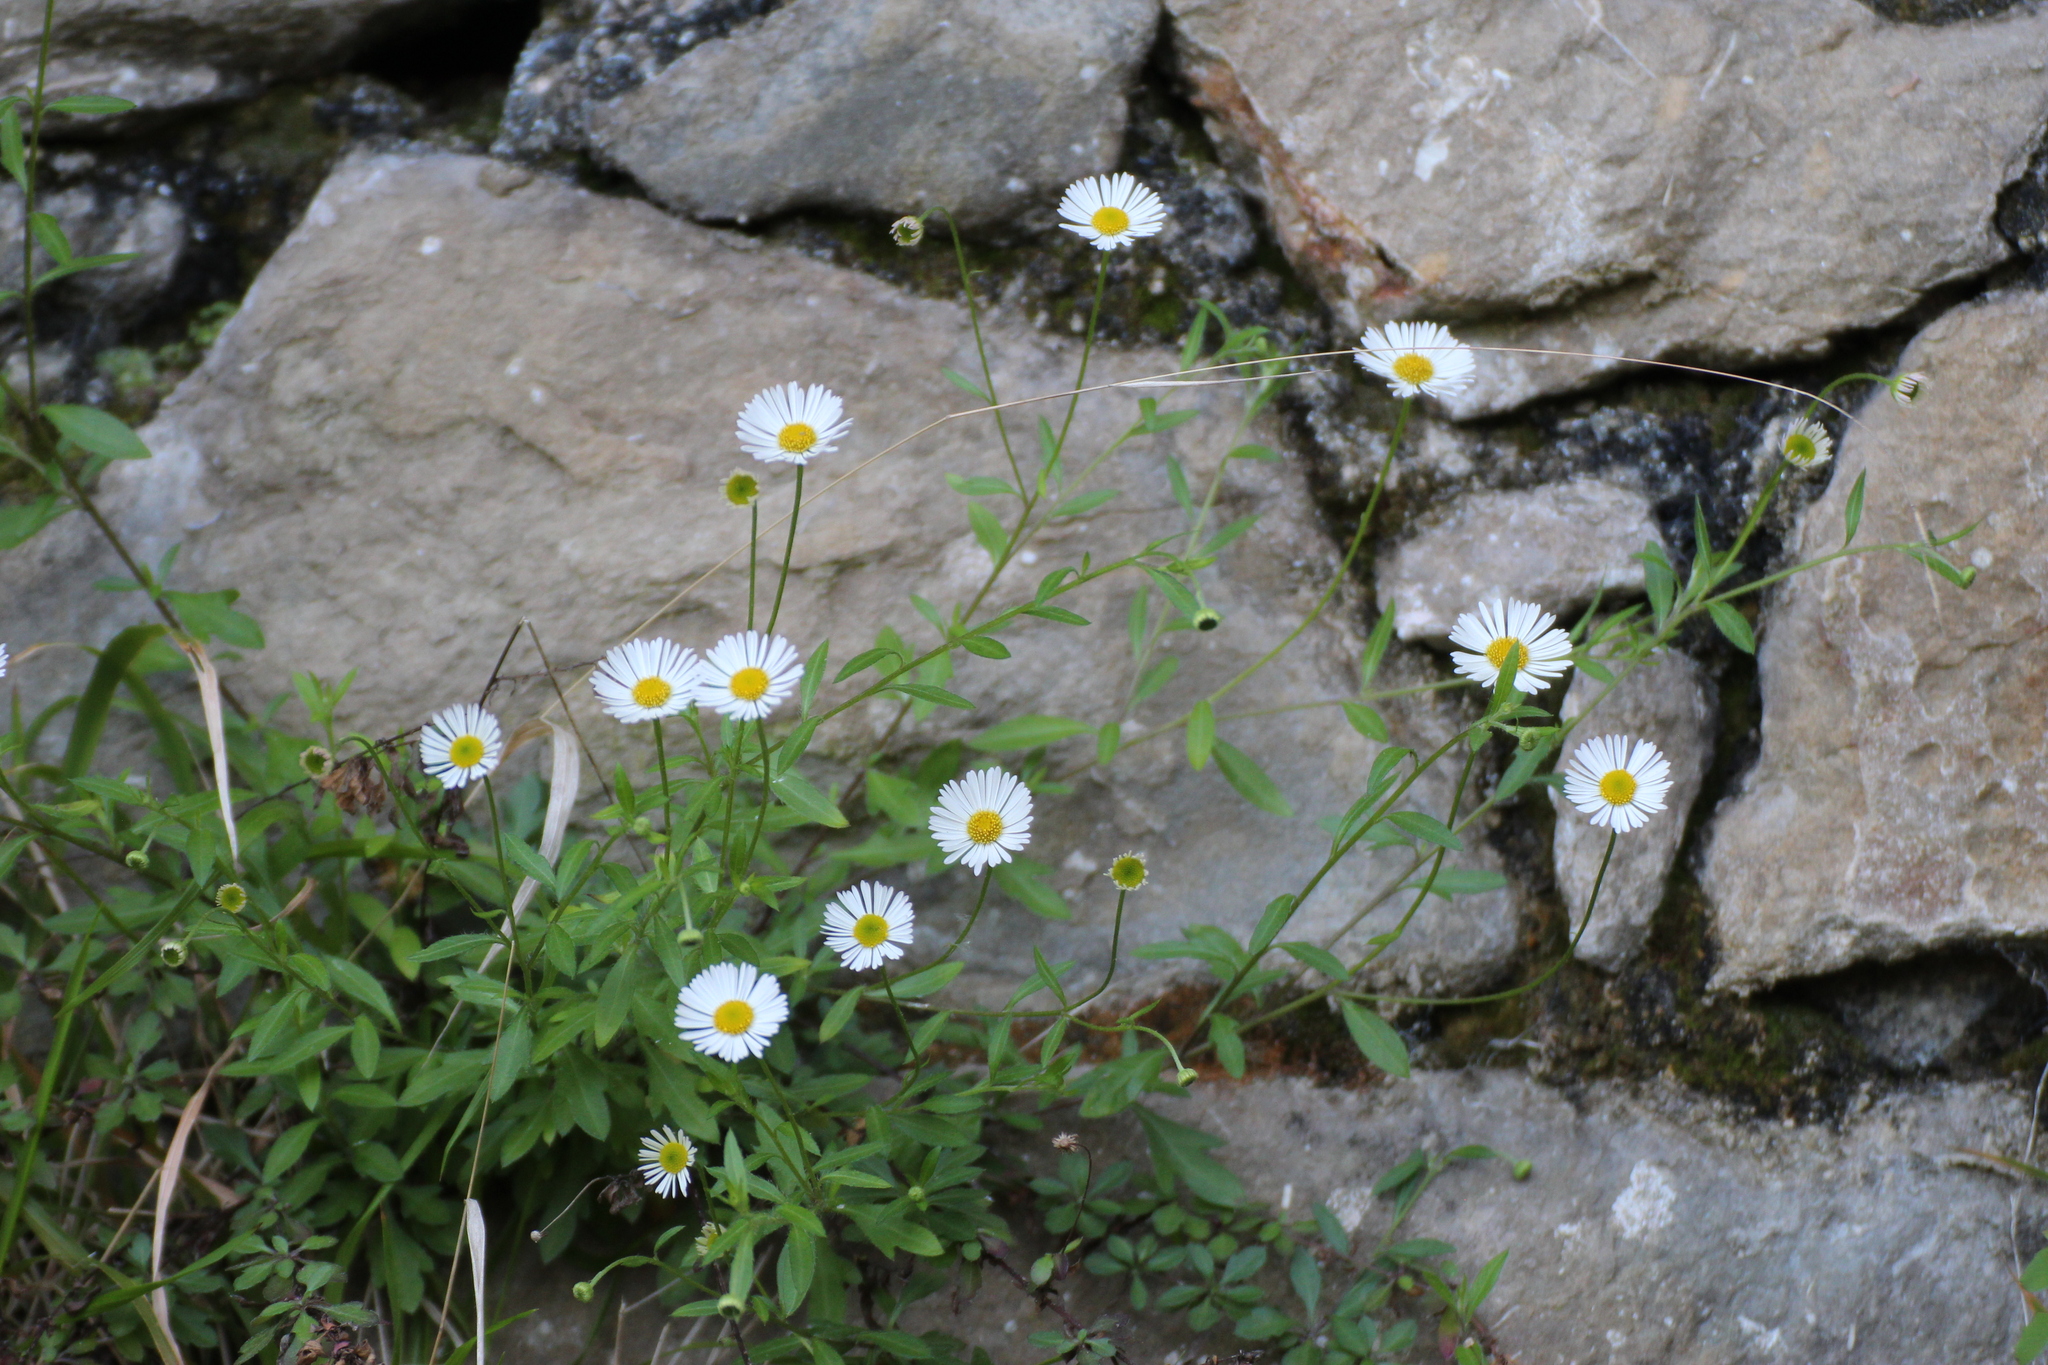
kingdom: Plantae
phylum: Tracheophyta
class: Magnoliopsida
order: Asterales
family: Asteraceae
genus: Erigeron
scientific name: Erigeron karvinskianus
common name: Mexican fleabane
